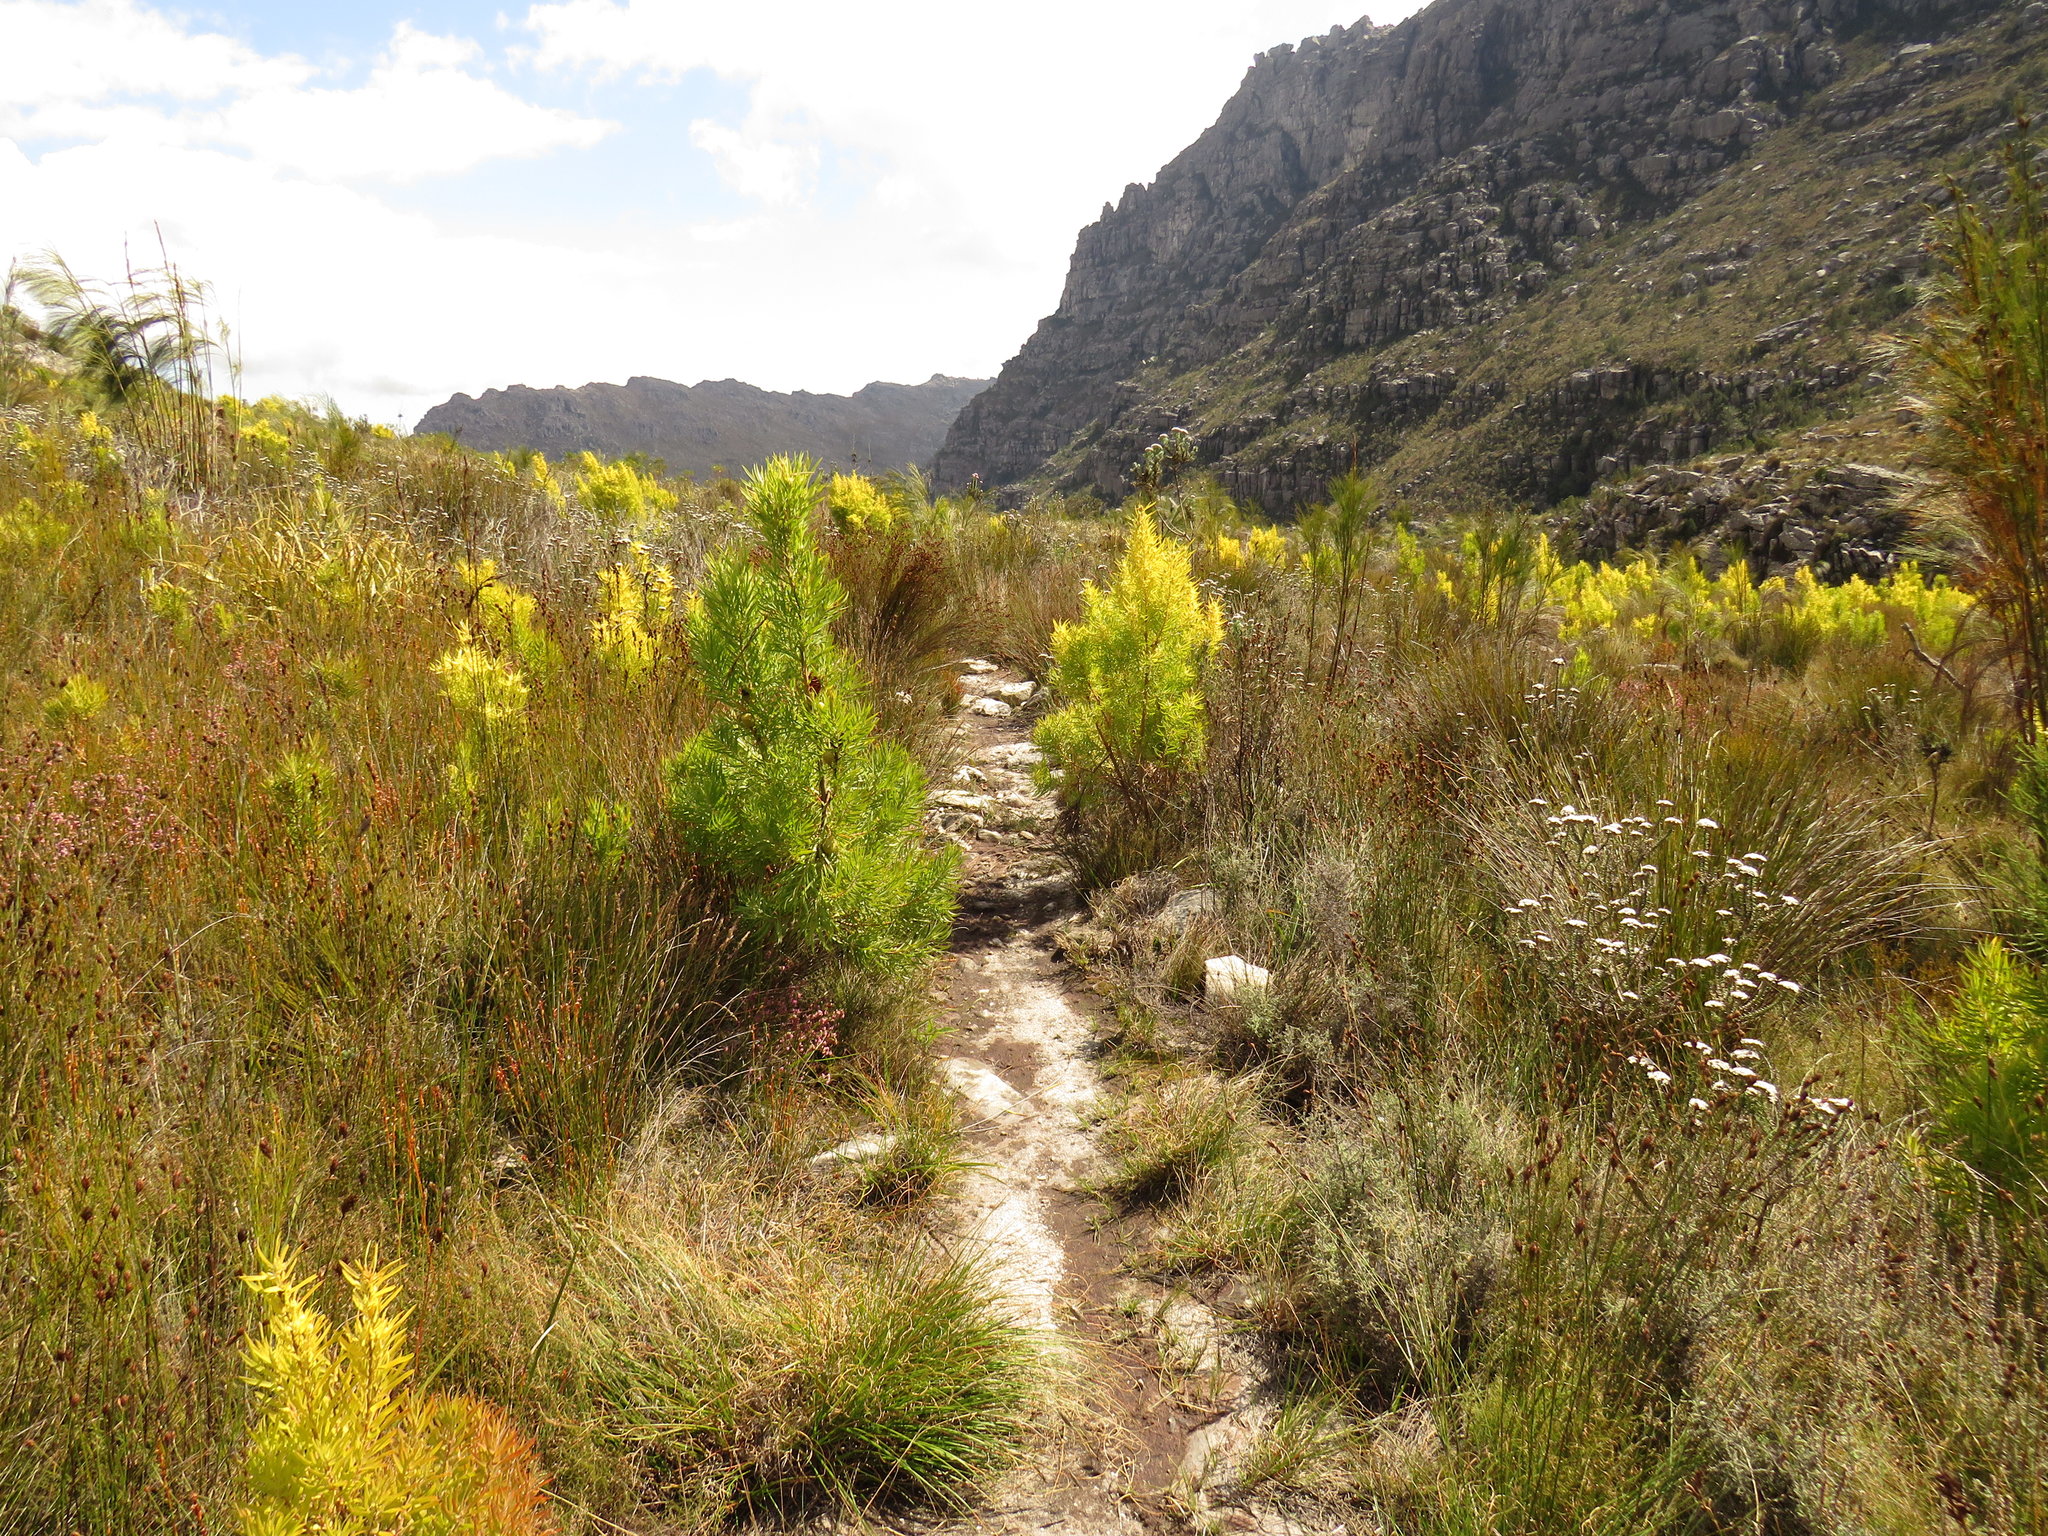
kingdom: Plantae
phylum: Tracheophyta
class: Magnoliopsida
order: Proteales
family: Proteaceae
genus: Leucadendron
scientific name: Leucadendron salicifolium
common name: Common stream conebush
